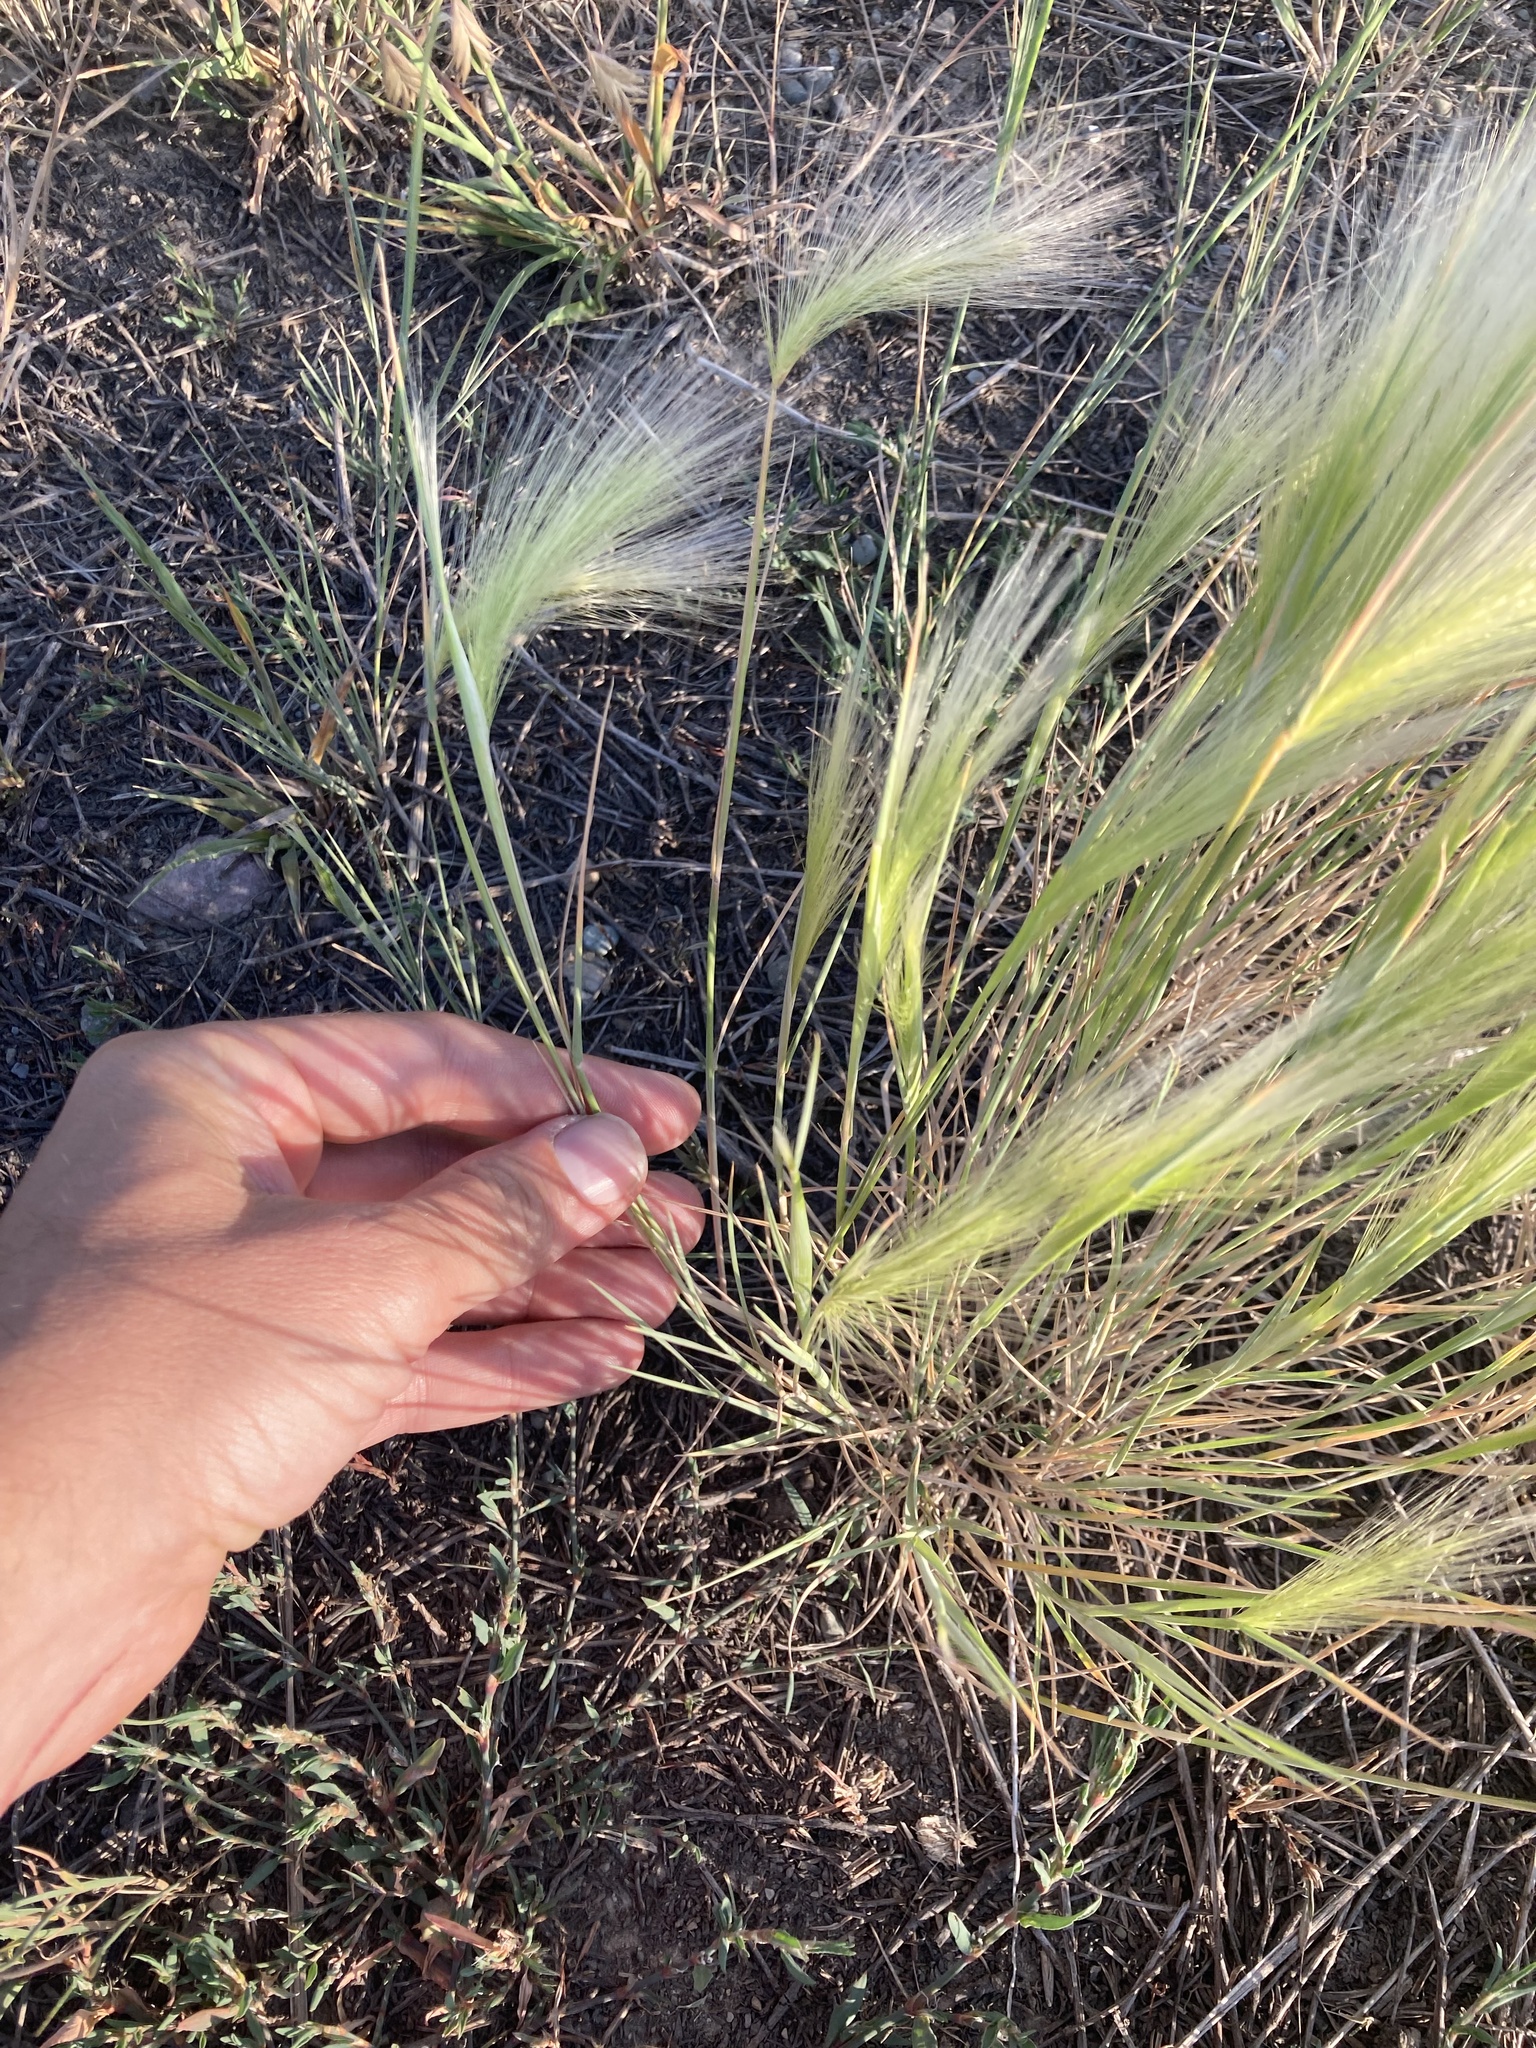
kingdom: Plantae
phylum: Tracheophyta
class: Liliopsida
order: Poales
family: Poaceae
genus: Hordeum
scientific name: Hordeum jubatum
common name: Foxtail barley
